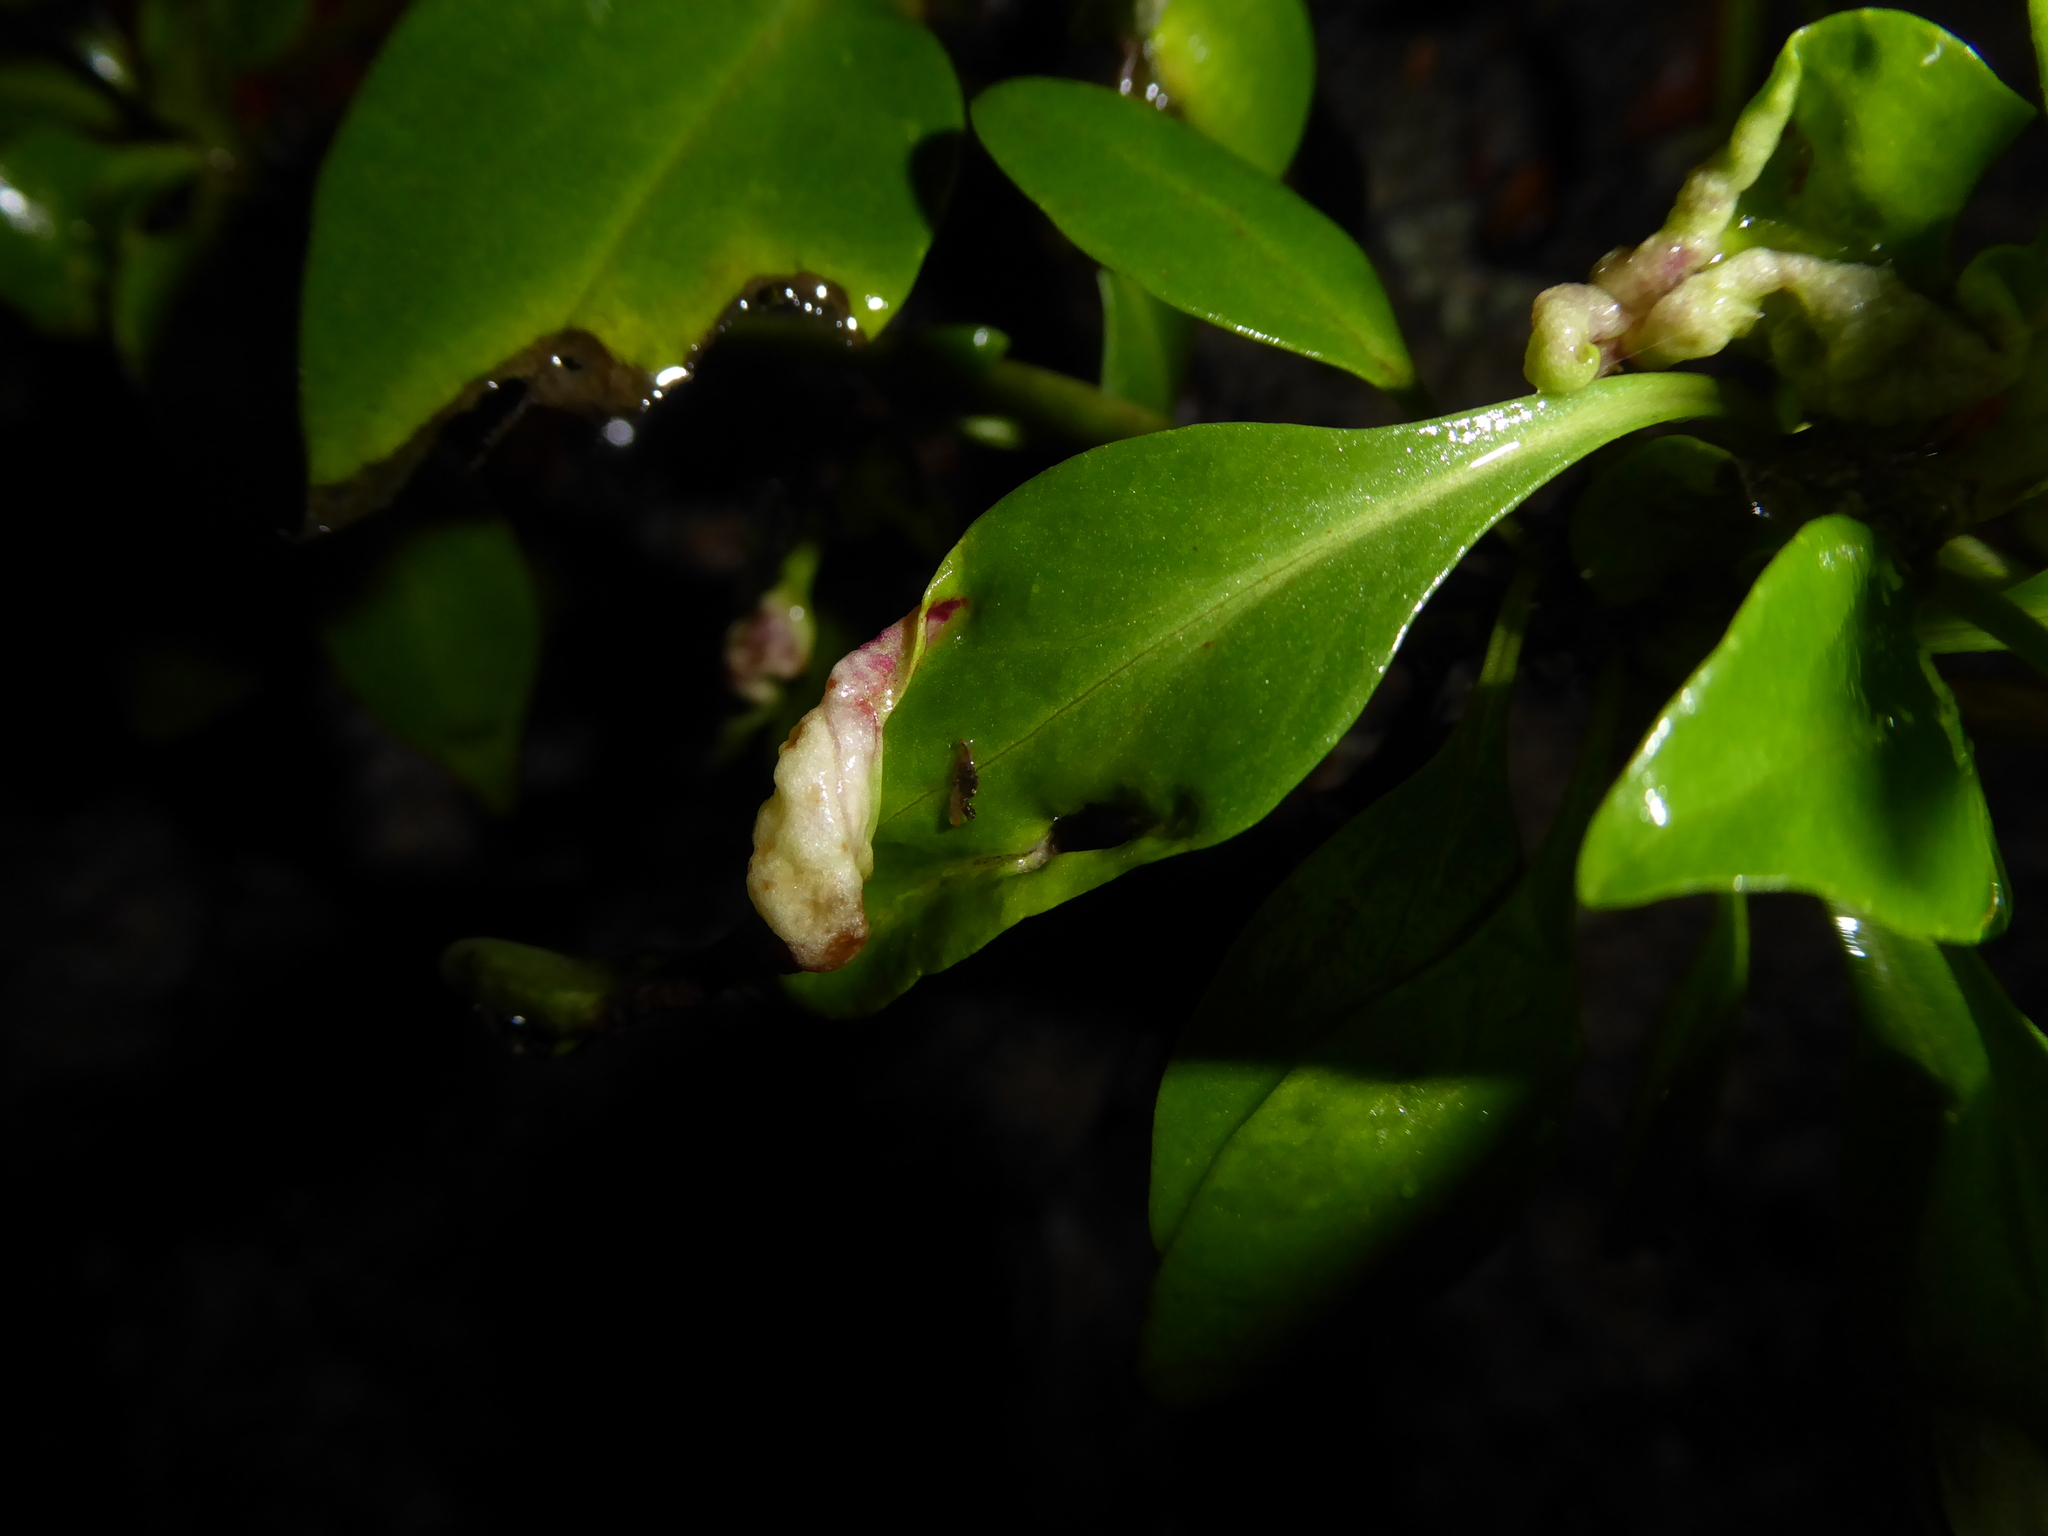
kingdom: Plantae
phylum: Tracheophyta
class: Magnoliopsida
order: Dipsacales
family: Caprifoliaceae
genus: Centranthus
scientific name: Centranthus ruber
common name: Red valerian
